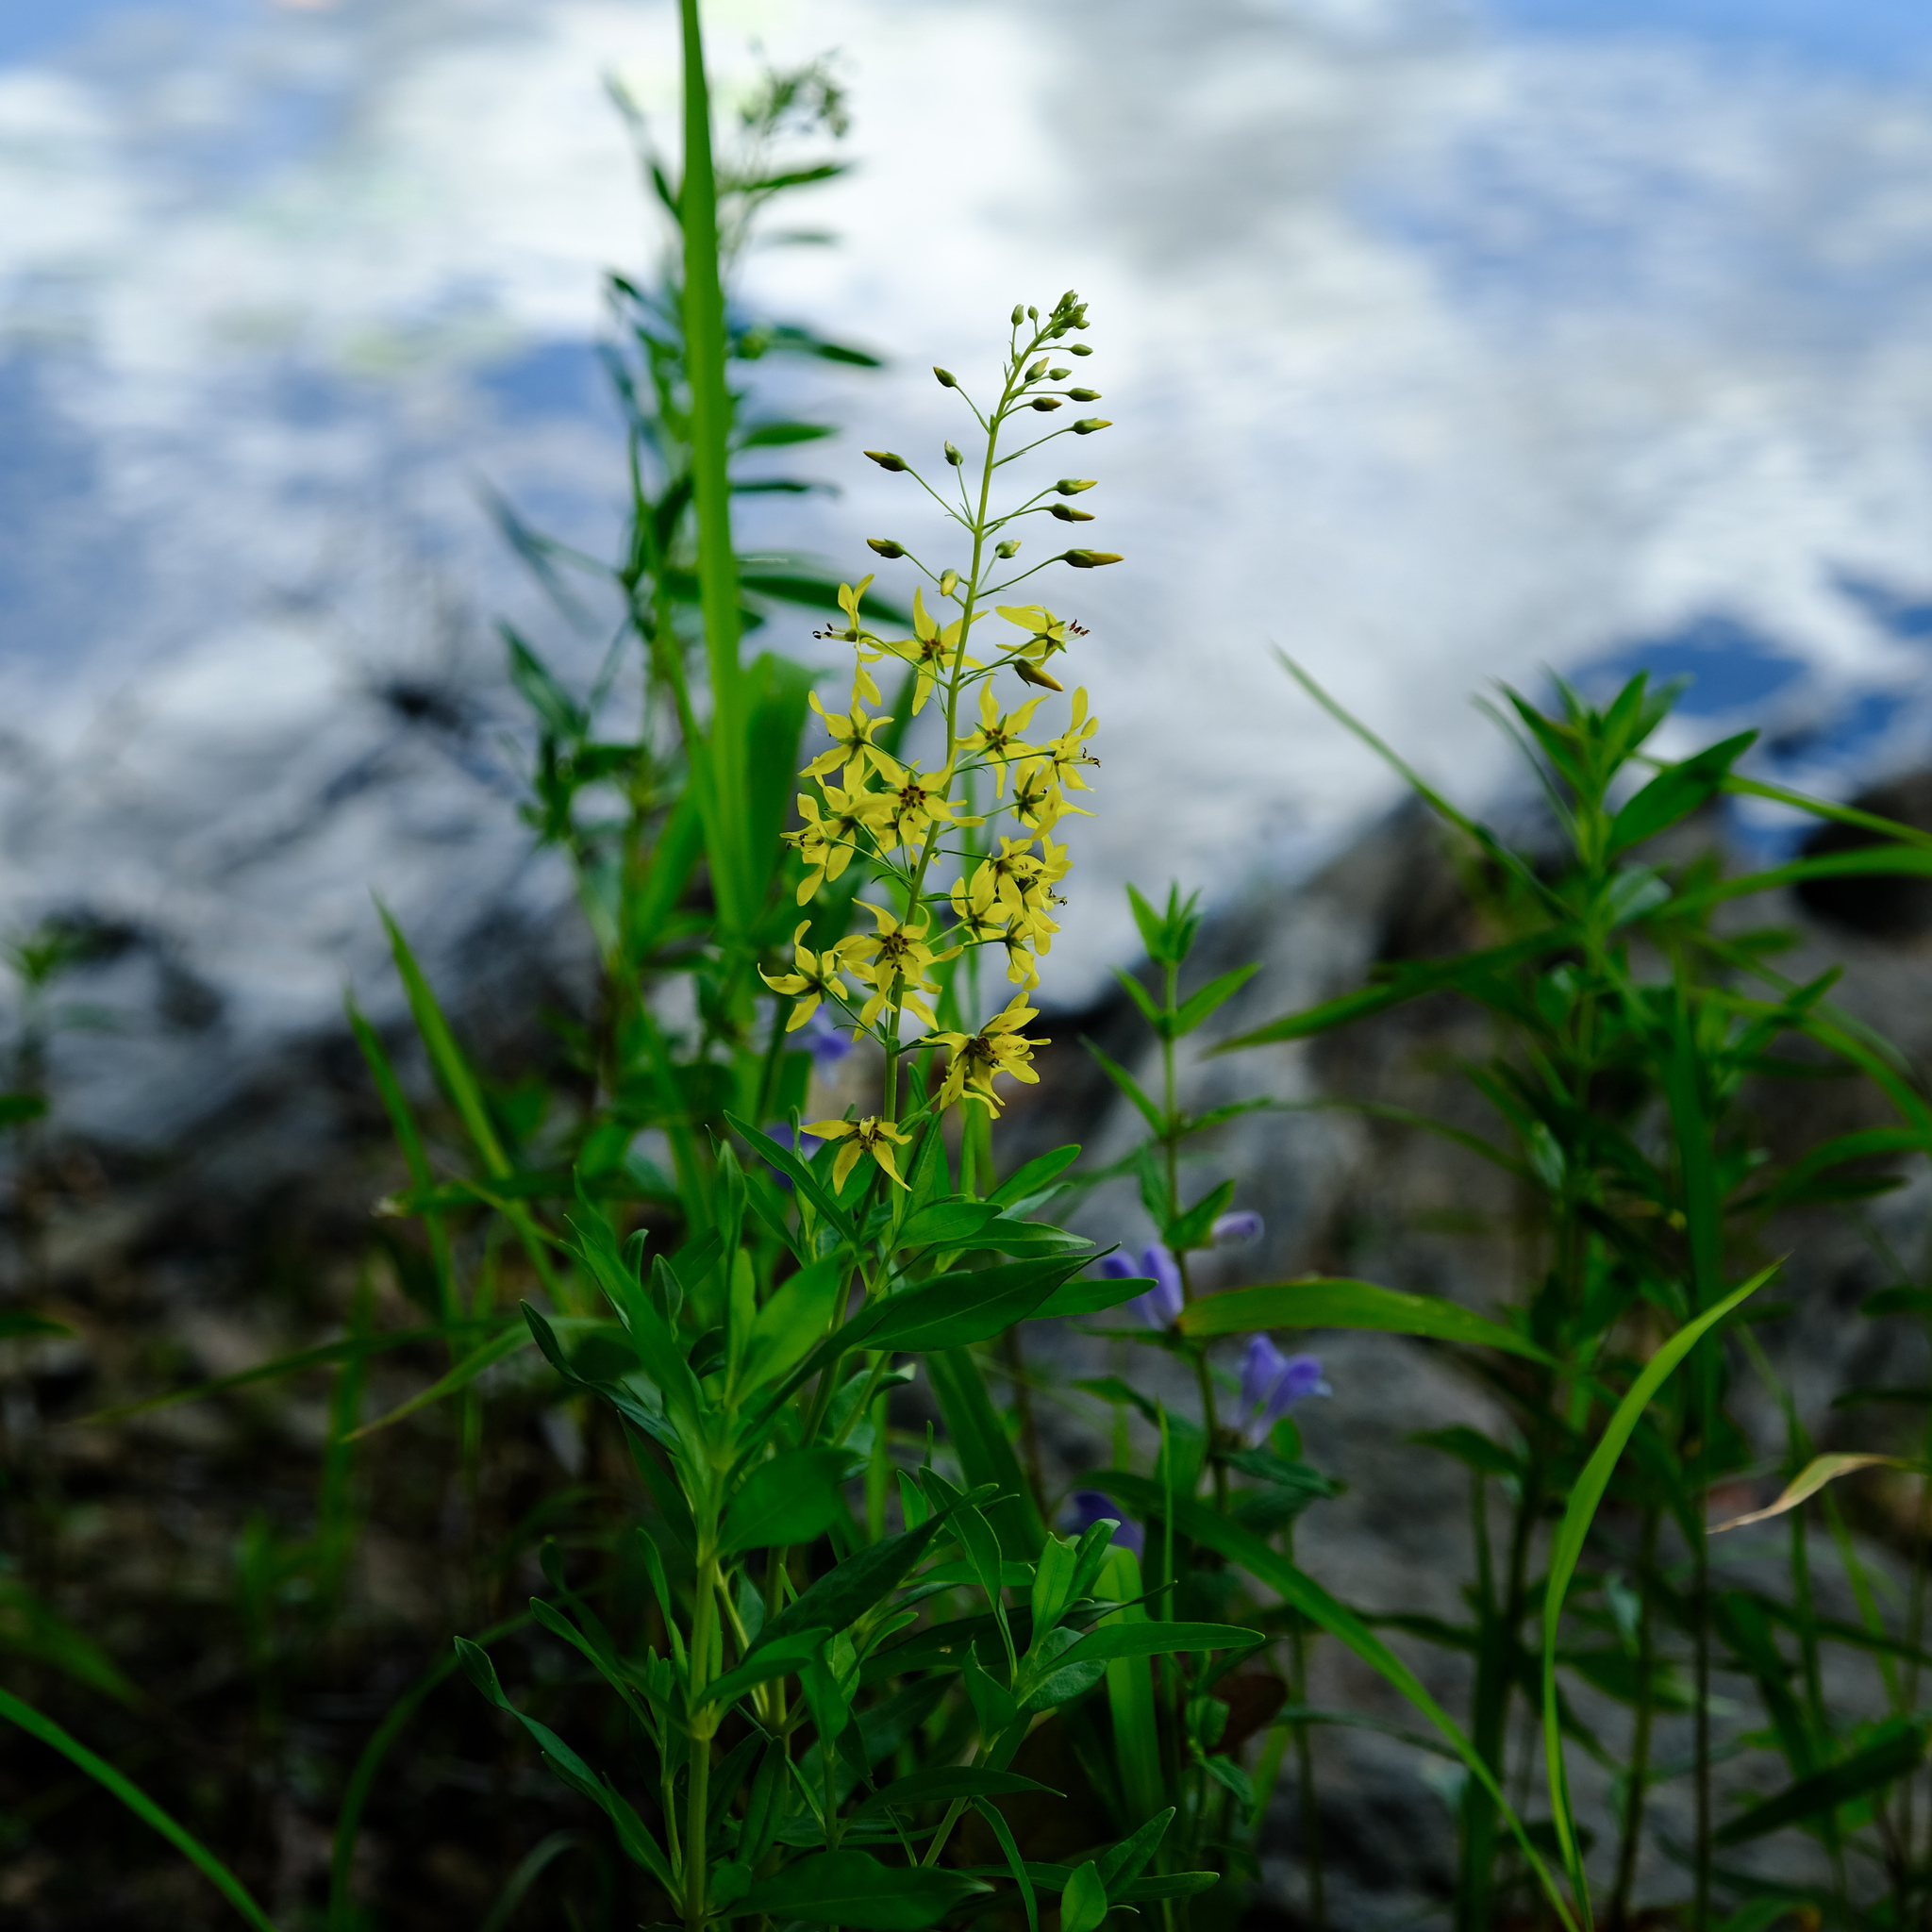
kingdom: Plantae
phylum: Tracheophyta
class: Magnoliopsida
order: Ericales
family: Primulaceae
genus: Lysimachia
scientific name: Lysimachia terrestris
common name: Lake loosestrife
